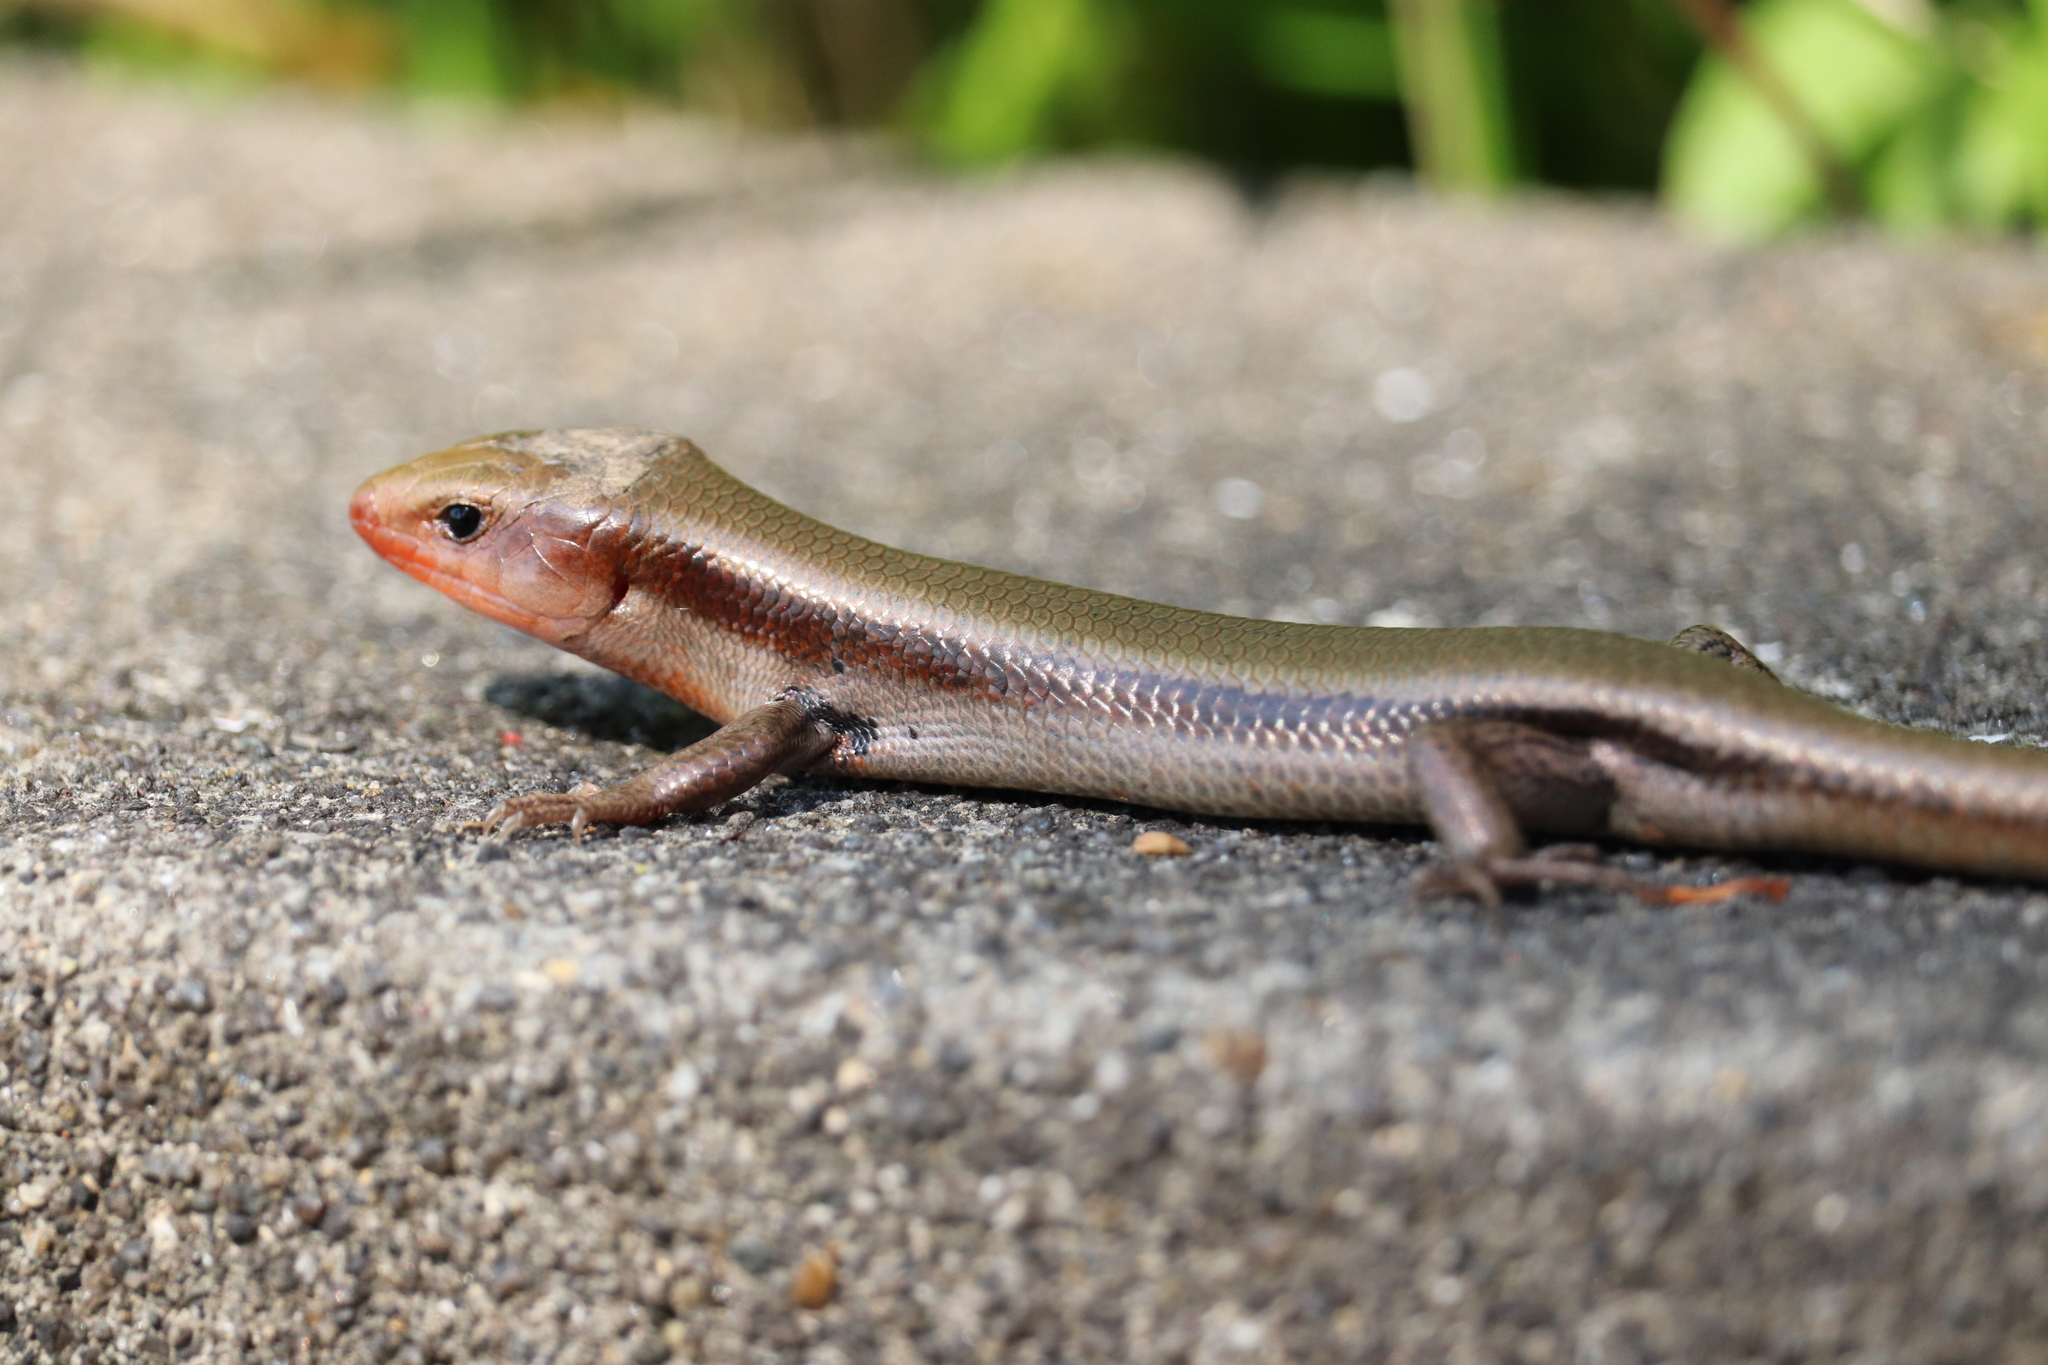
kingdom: Animalia
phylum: Chordata
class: Squamata
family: Scincidae
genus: Plestiodon
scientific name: Plestiodon finitimus
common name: Far eastern skink
